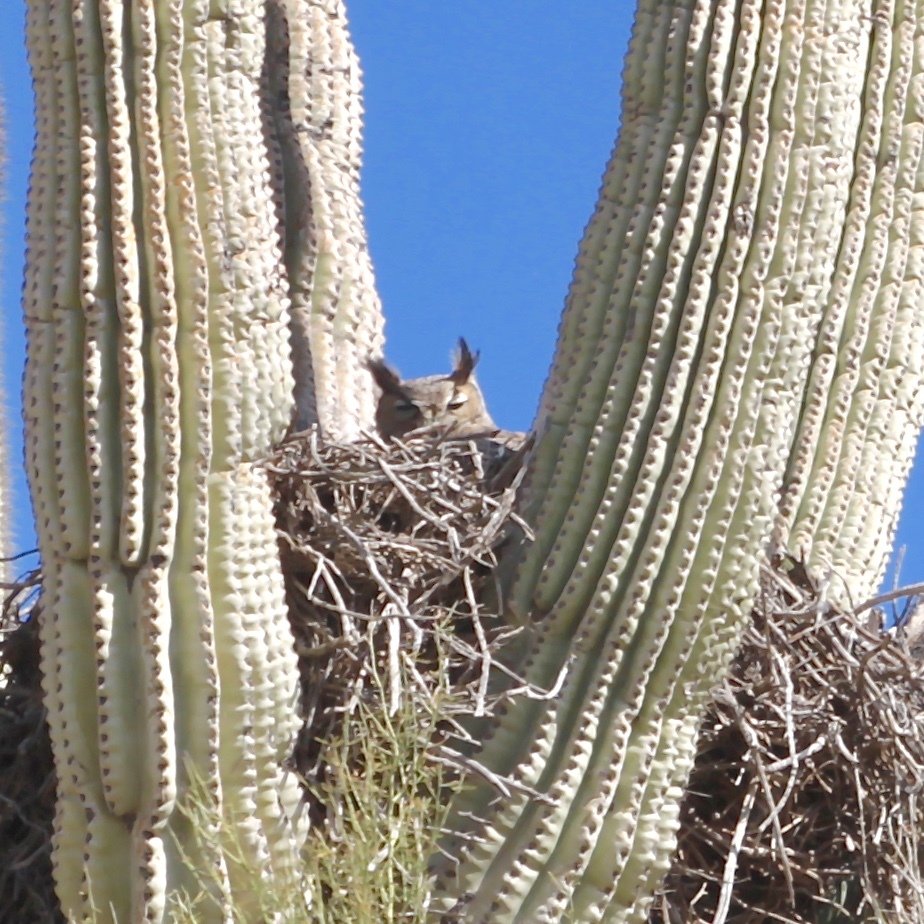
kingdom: Animalia
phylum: Chordata
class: Aves
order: Strigiformes
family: Strigidae
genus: Bubo
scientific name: Bubo virginianus
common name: Great horned owl
